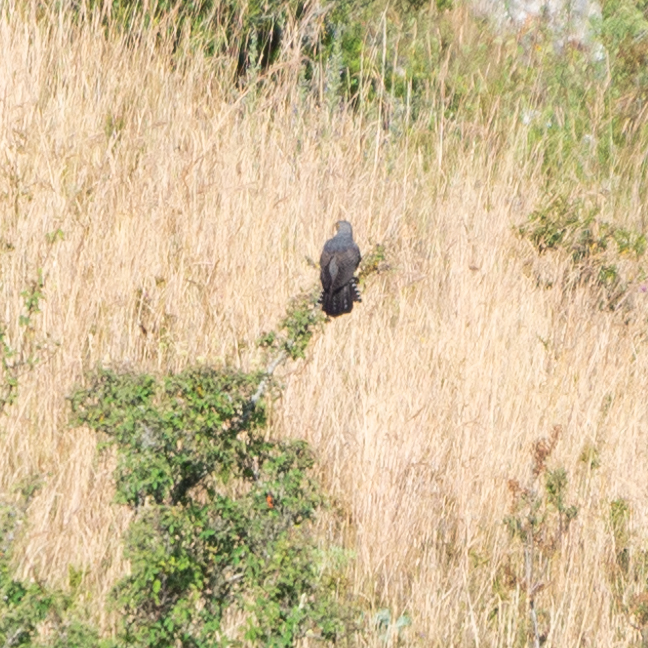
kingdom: Animalia
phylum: Chordata
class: Aves
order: Cuculiformes
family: Cuculidae
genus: Cuculus
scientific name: Cuculus canorus
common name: Common cuckoo
